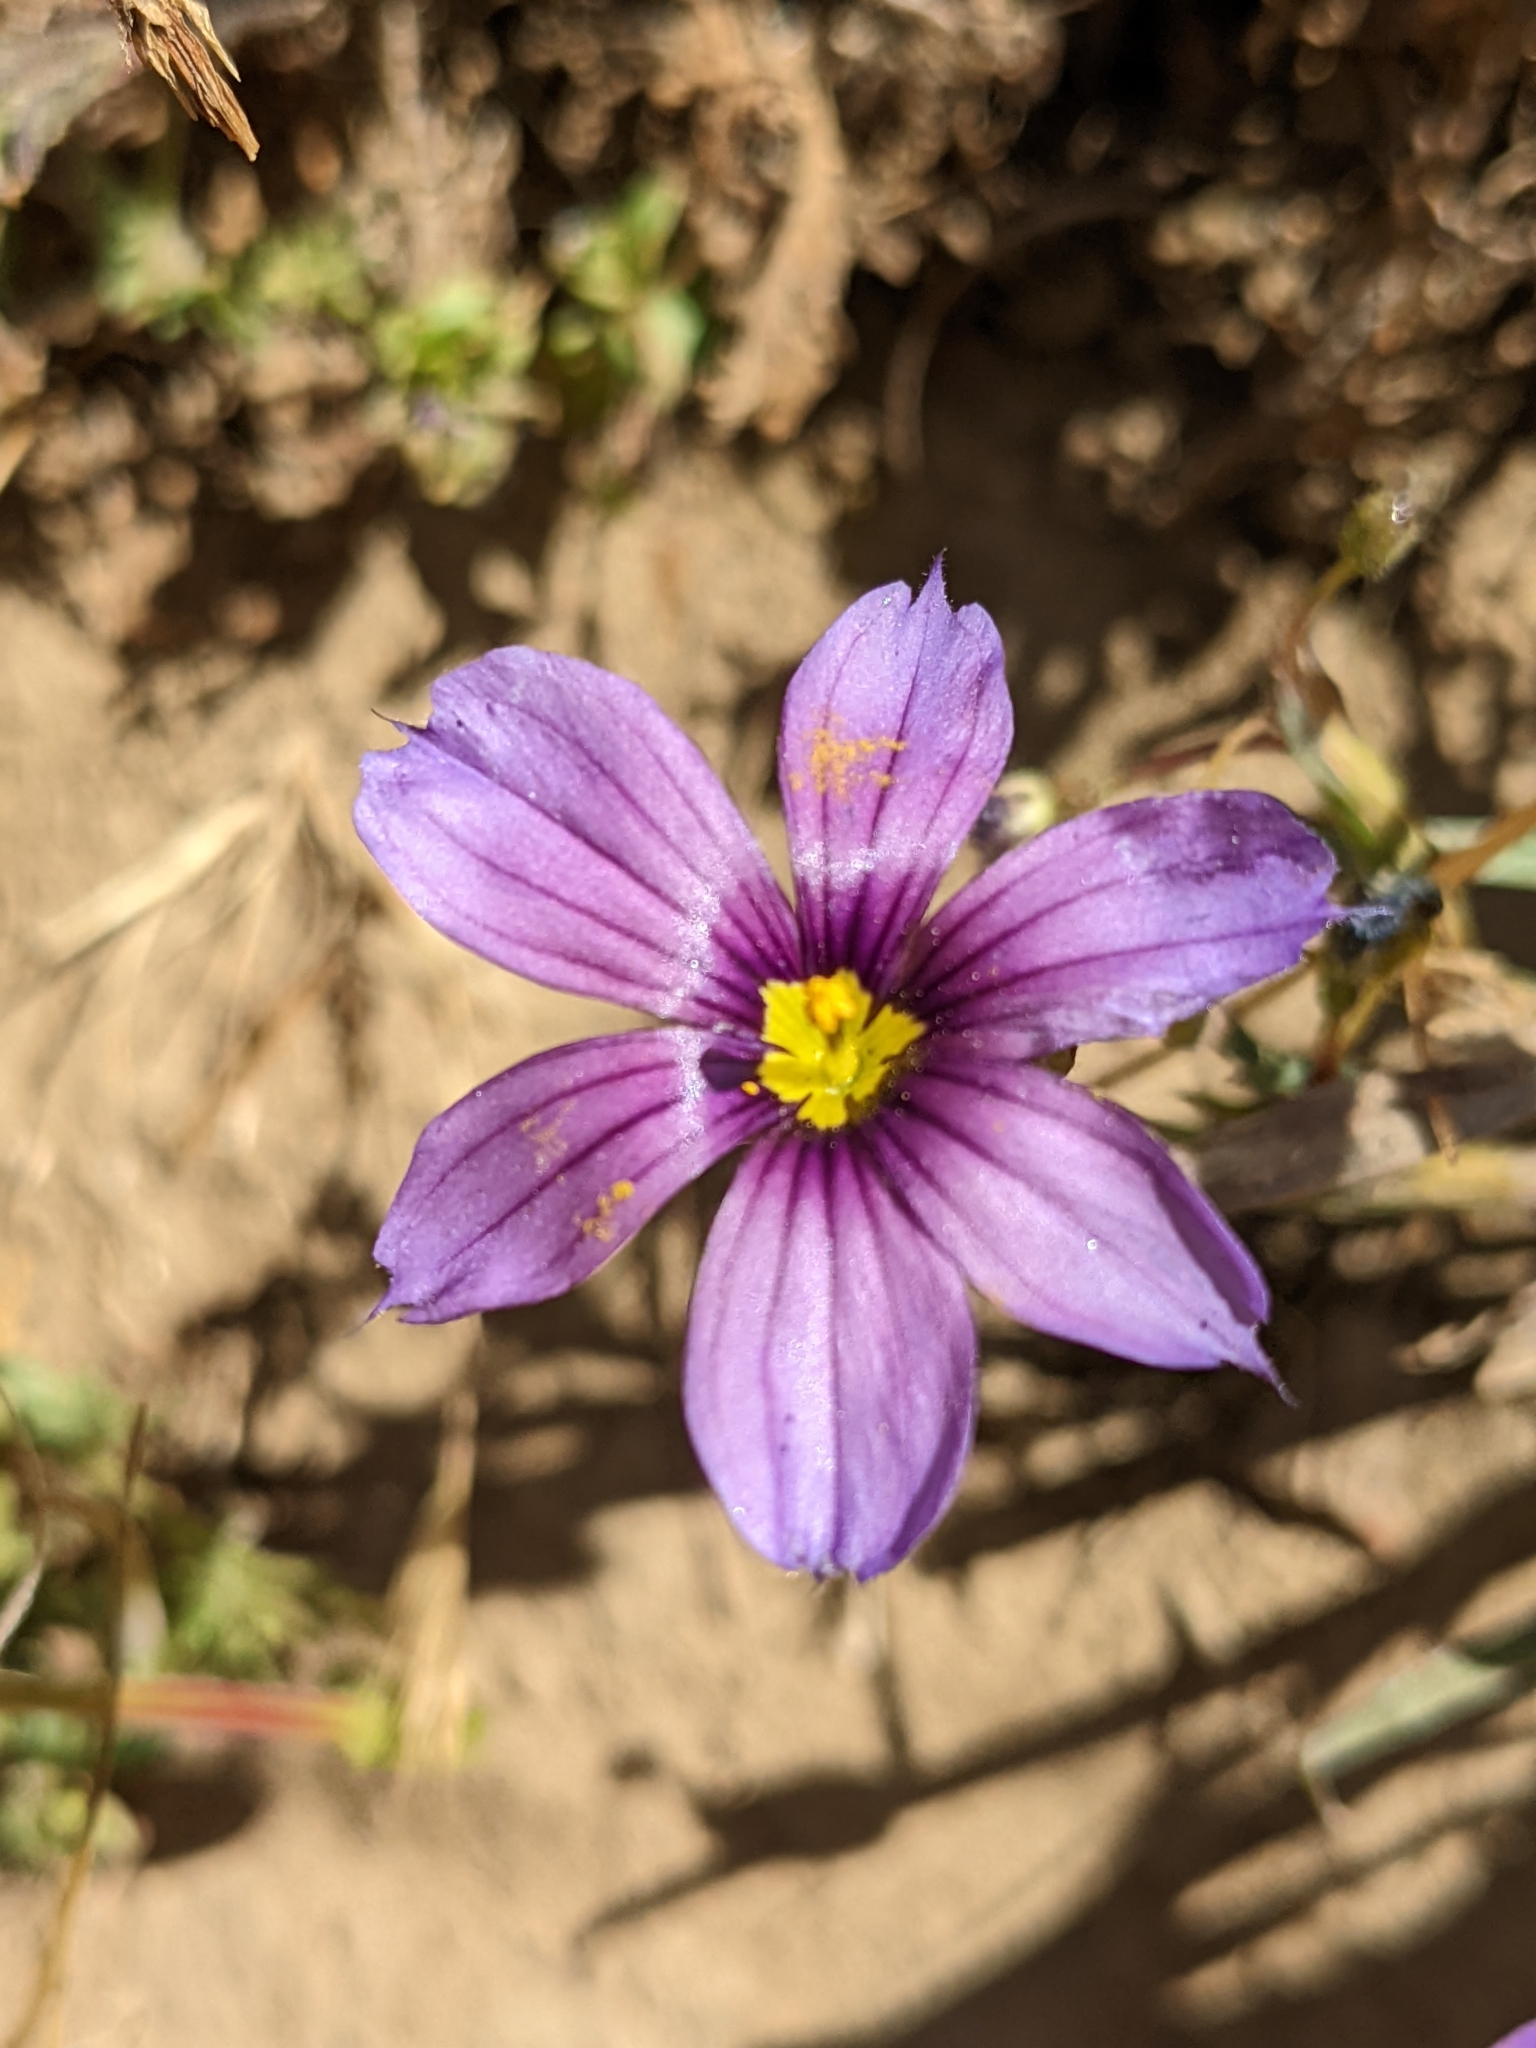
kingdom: Plantae
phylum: Tracheophyta
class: Liliopsida
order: Asparagales
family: Iridaceae
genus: Sisyrinchium
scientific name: Sisyrinchium bellum
